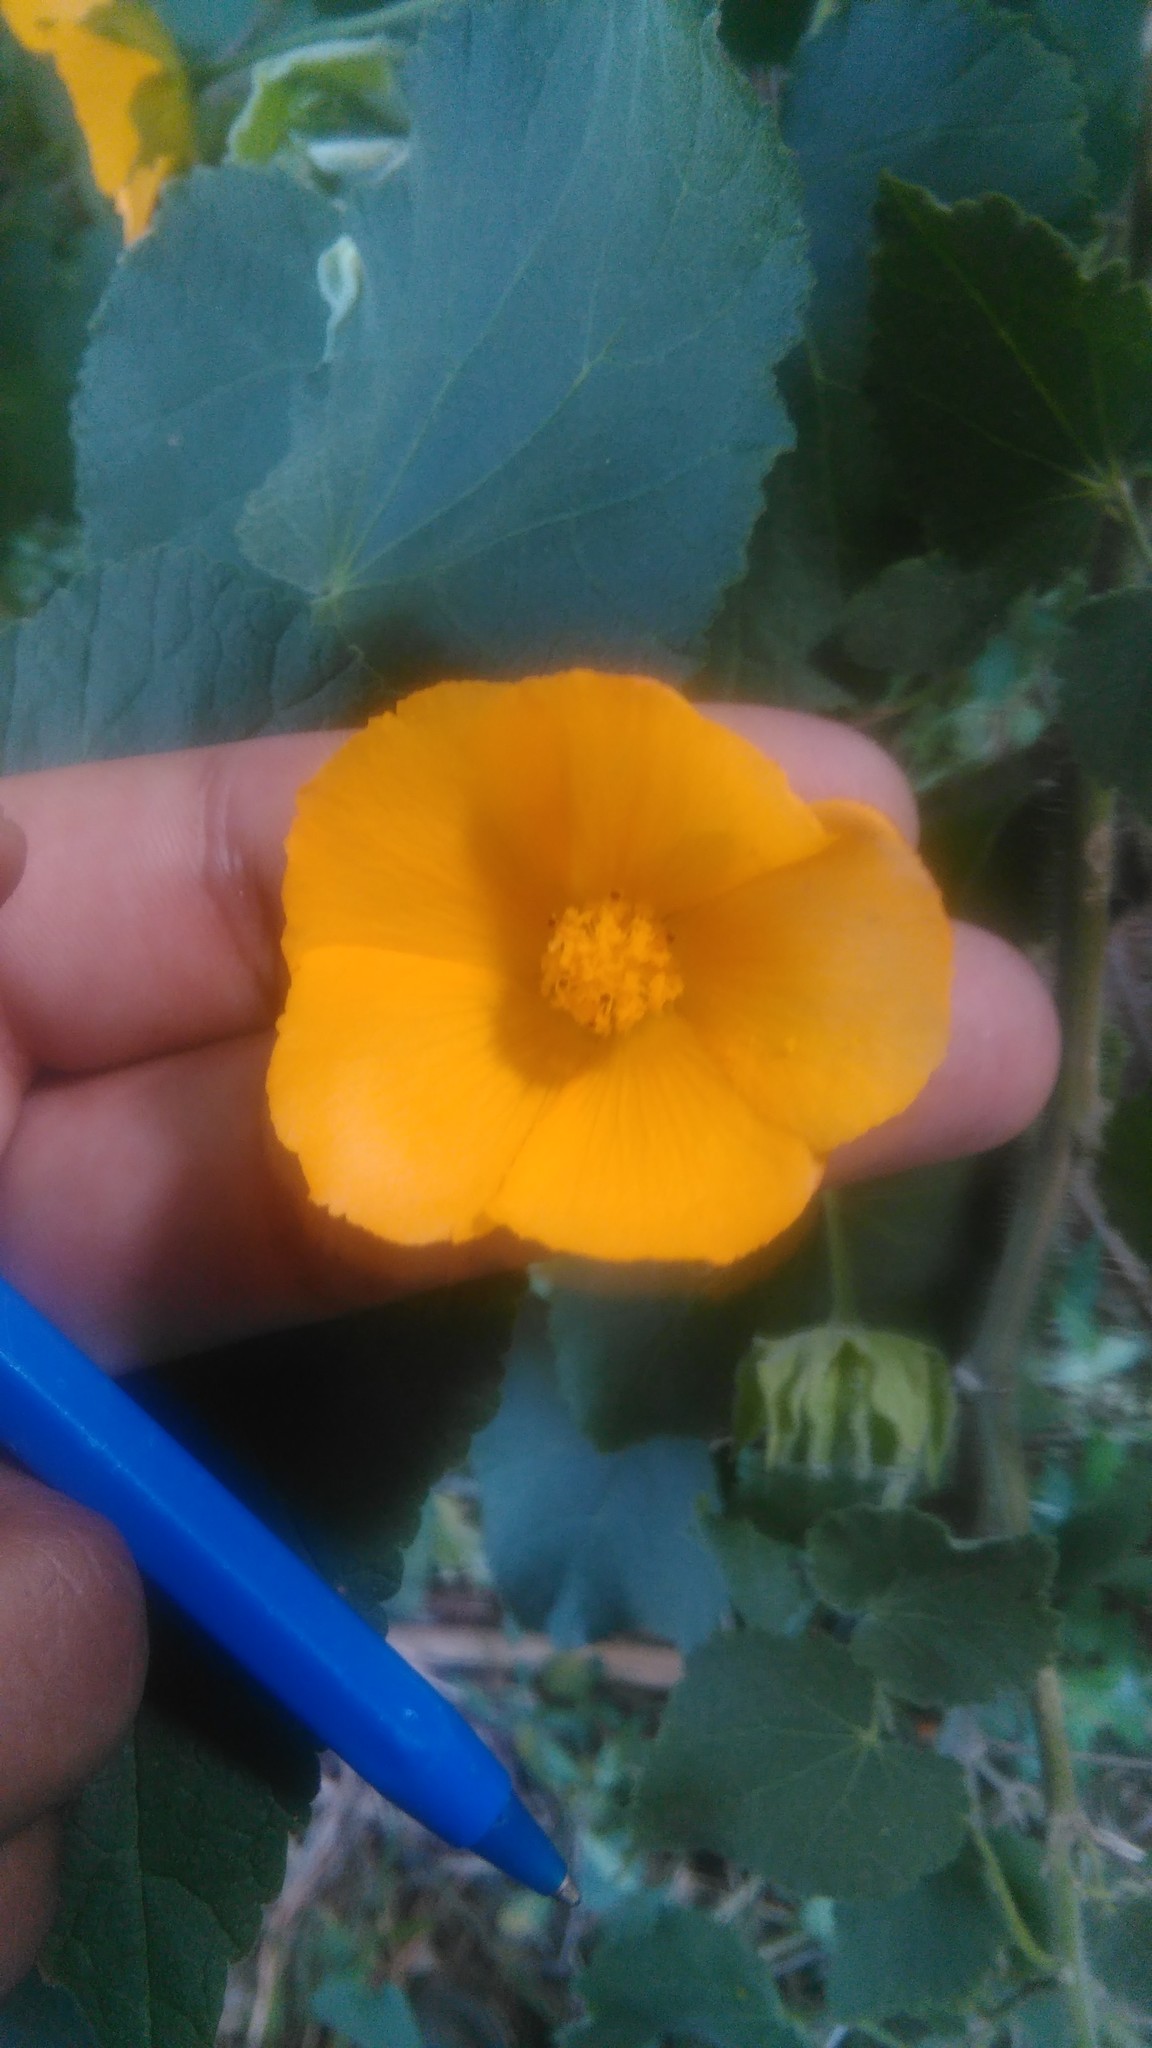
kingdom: Plantae
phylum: Tracheophyta
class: Magnoliopsida
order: Malvales
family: Malvaceae
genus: Abutilon
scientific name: Abutilon grandifolium
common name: Hairy abutilon
